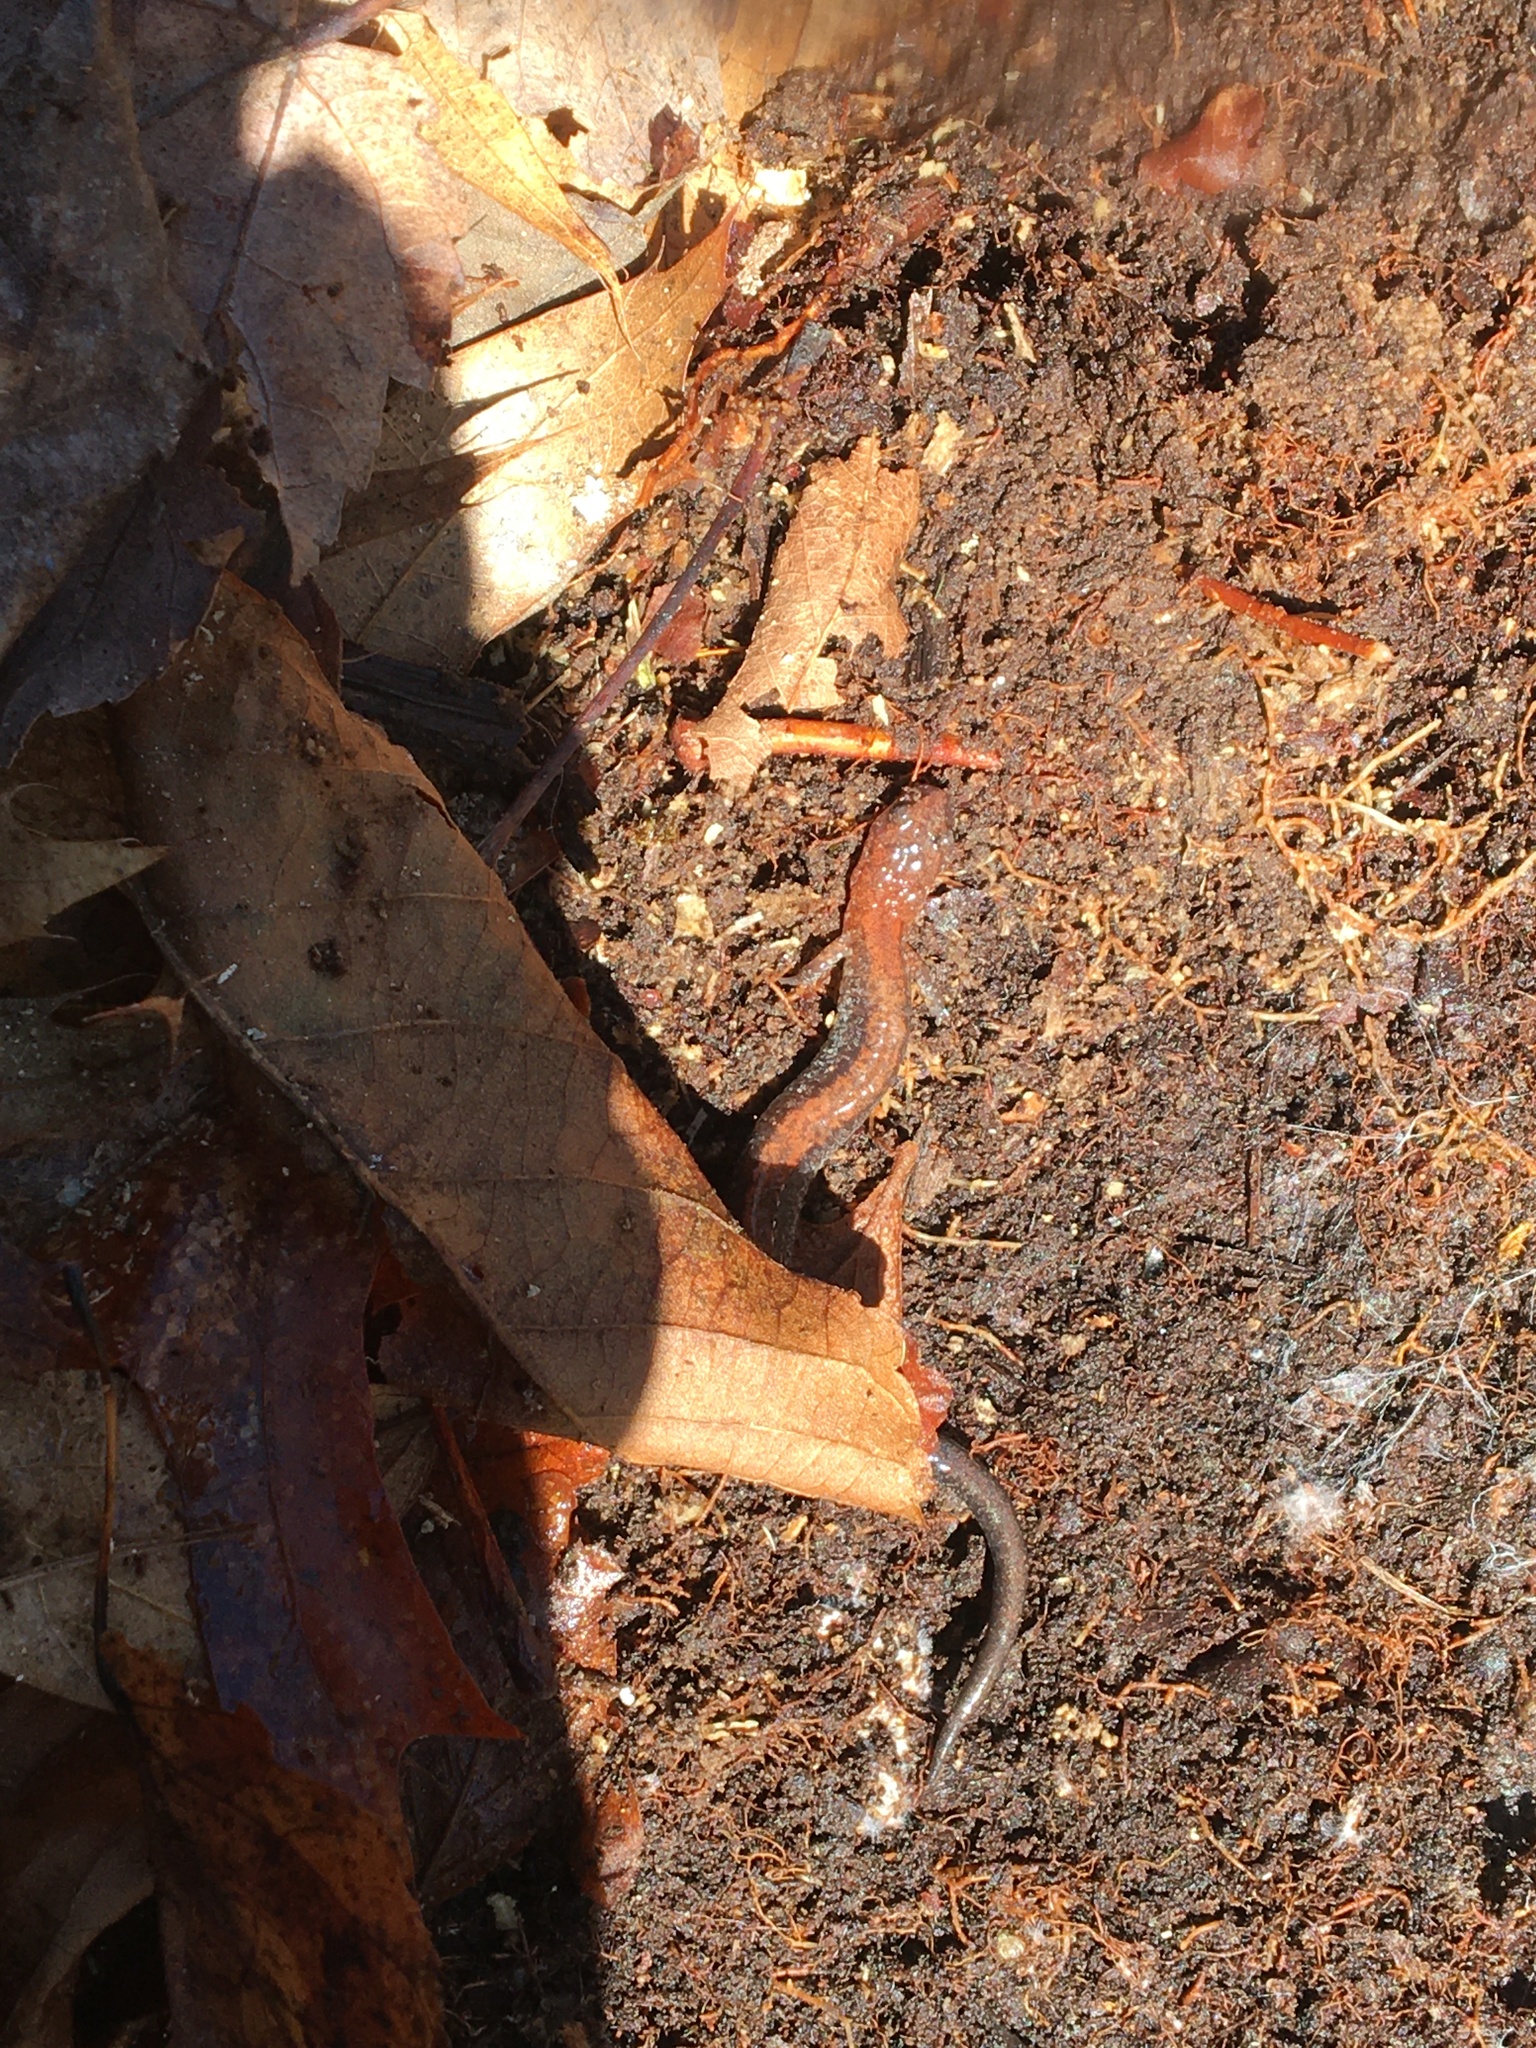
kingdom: Animalia
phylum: Chordata
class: Amphibia
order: Caudata
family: Plethodontidae
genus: Plethodon
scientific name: Plethodon cinereus
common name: Redback salamander
